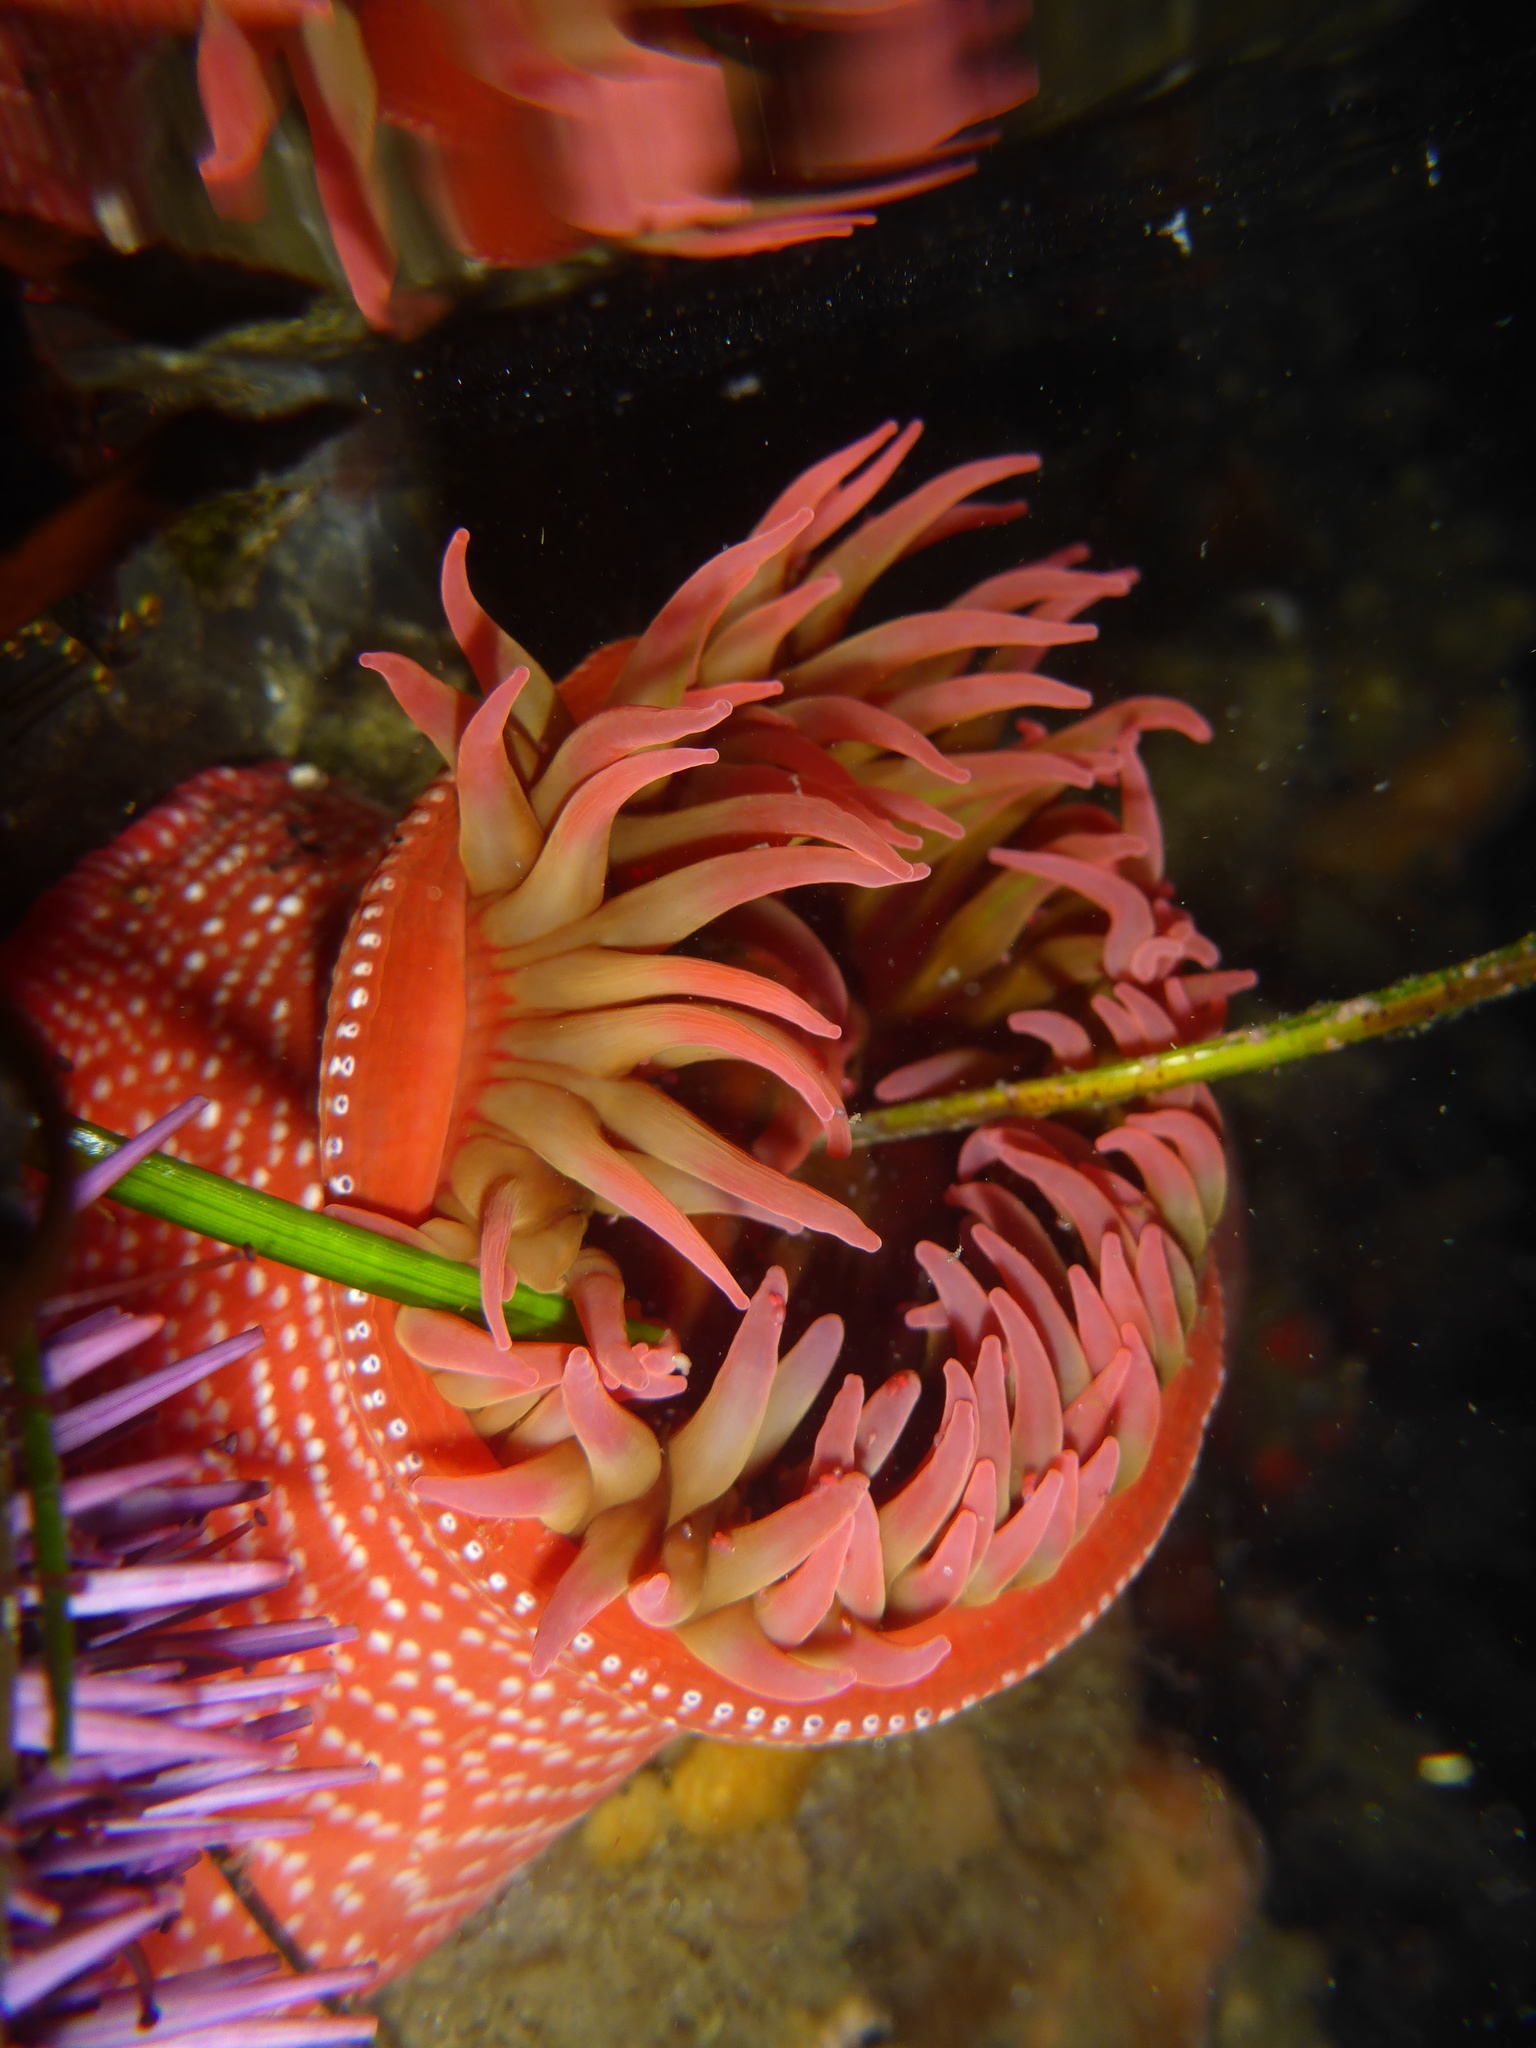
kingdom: Animalia
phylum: Cnidaria
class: Anthozoa
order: Actiniaria
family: Actiniidae
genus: Cribrinopsis
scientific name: Cribrinopsis albopunctata
